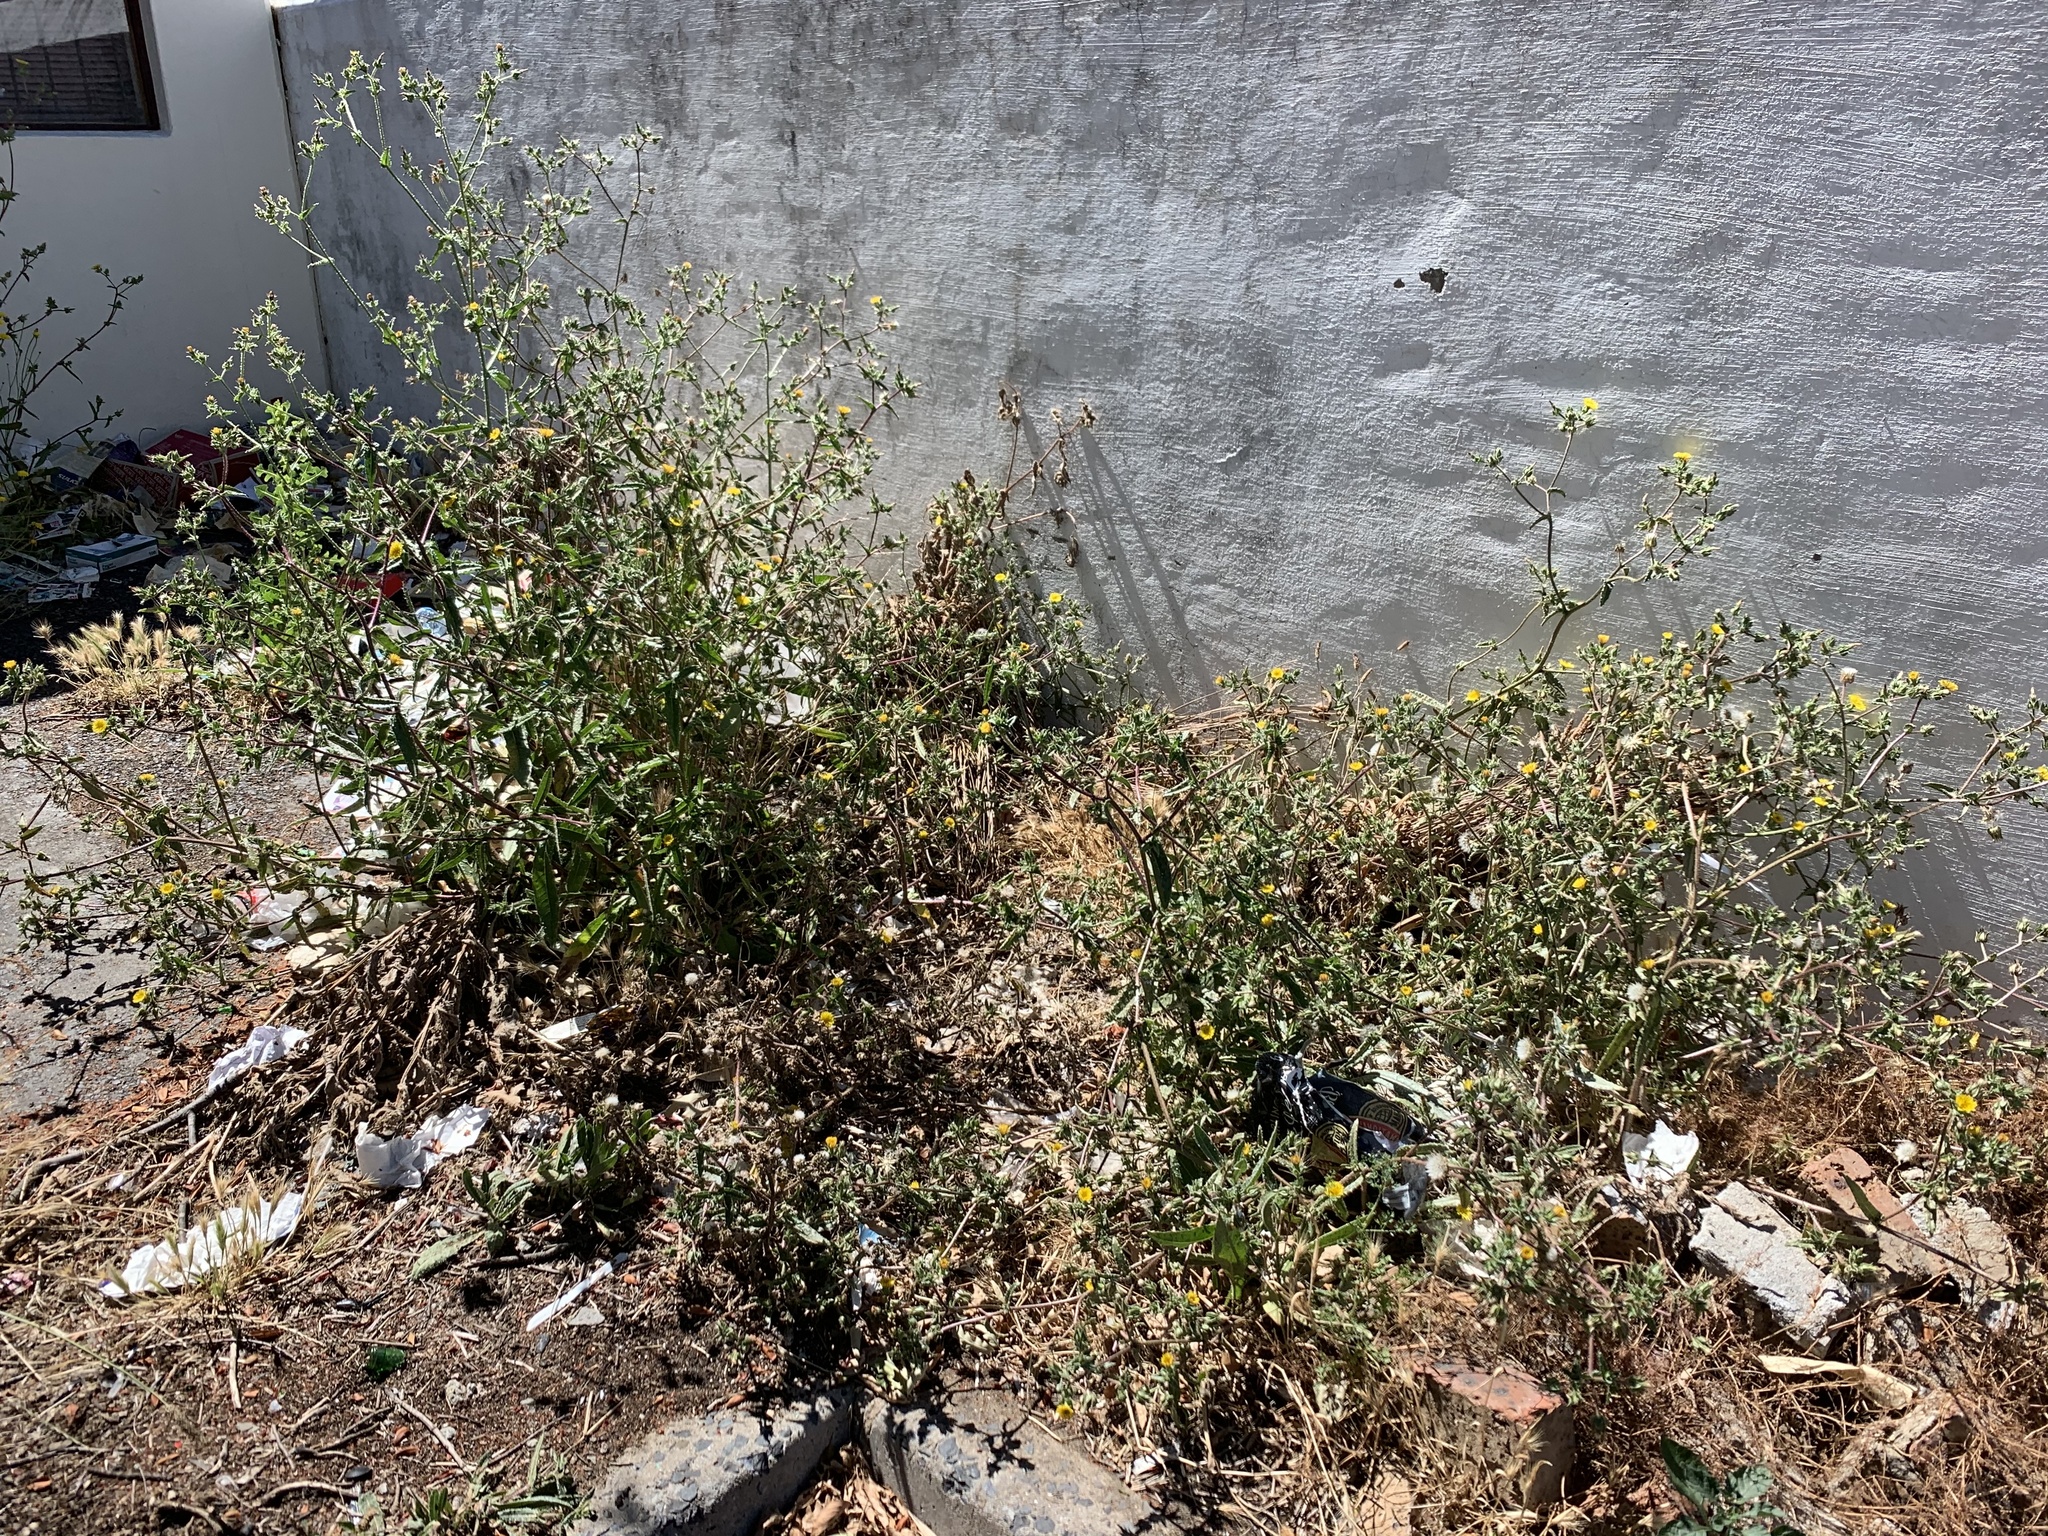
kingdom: Plantae
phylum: Tracheophyta
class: Magnoliopsida
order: Asterales
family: Asteraceae
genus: Helminthotheca
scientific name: Helminthotheca echioides
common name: Ox-tongue
